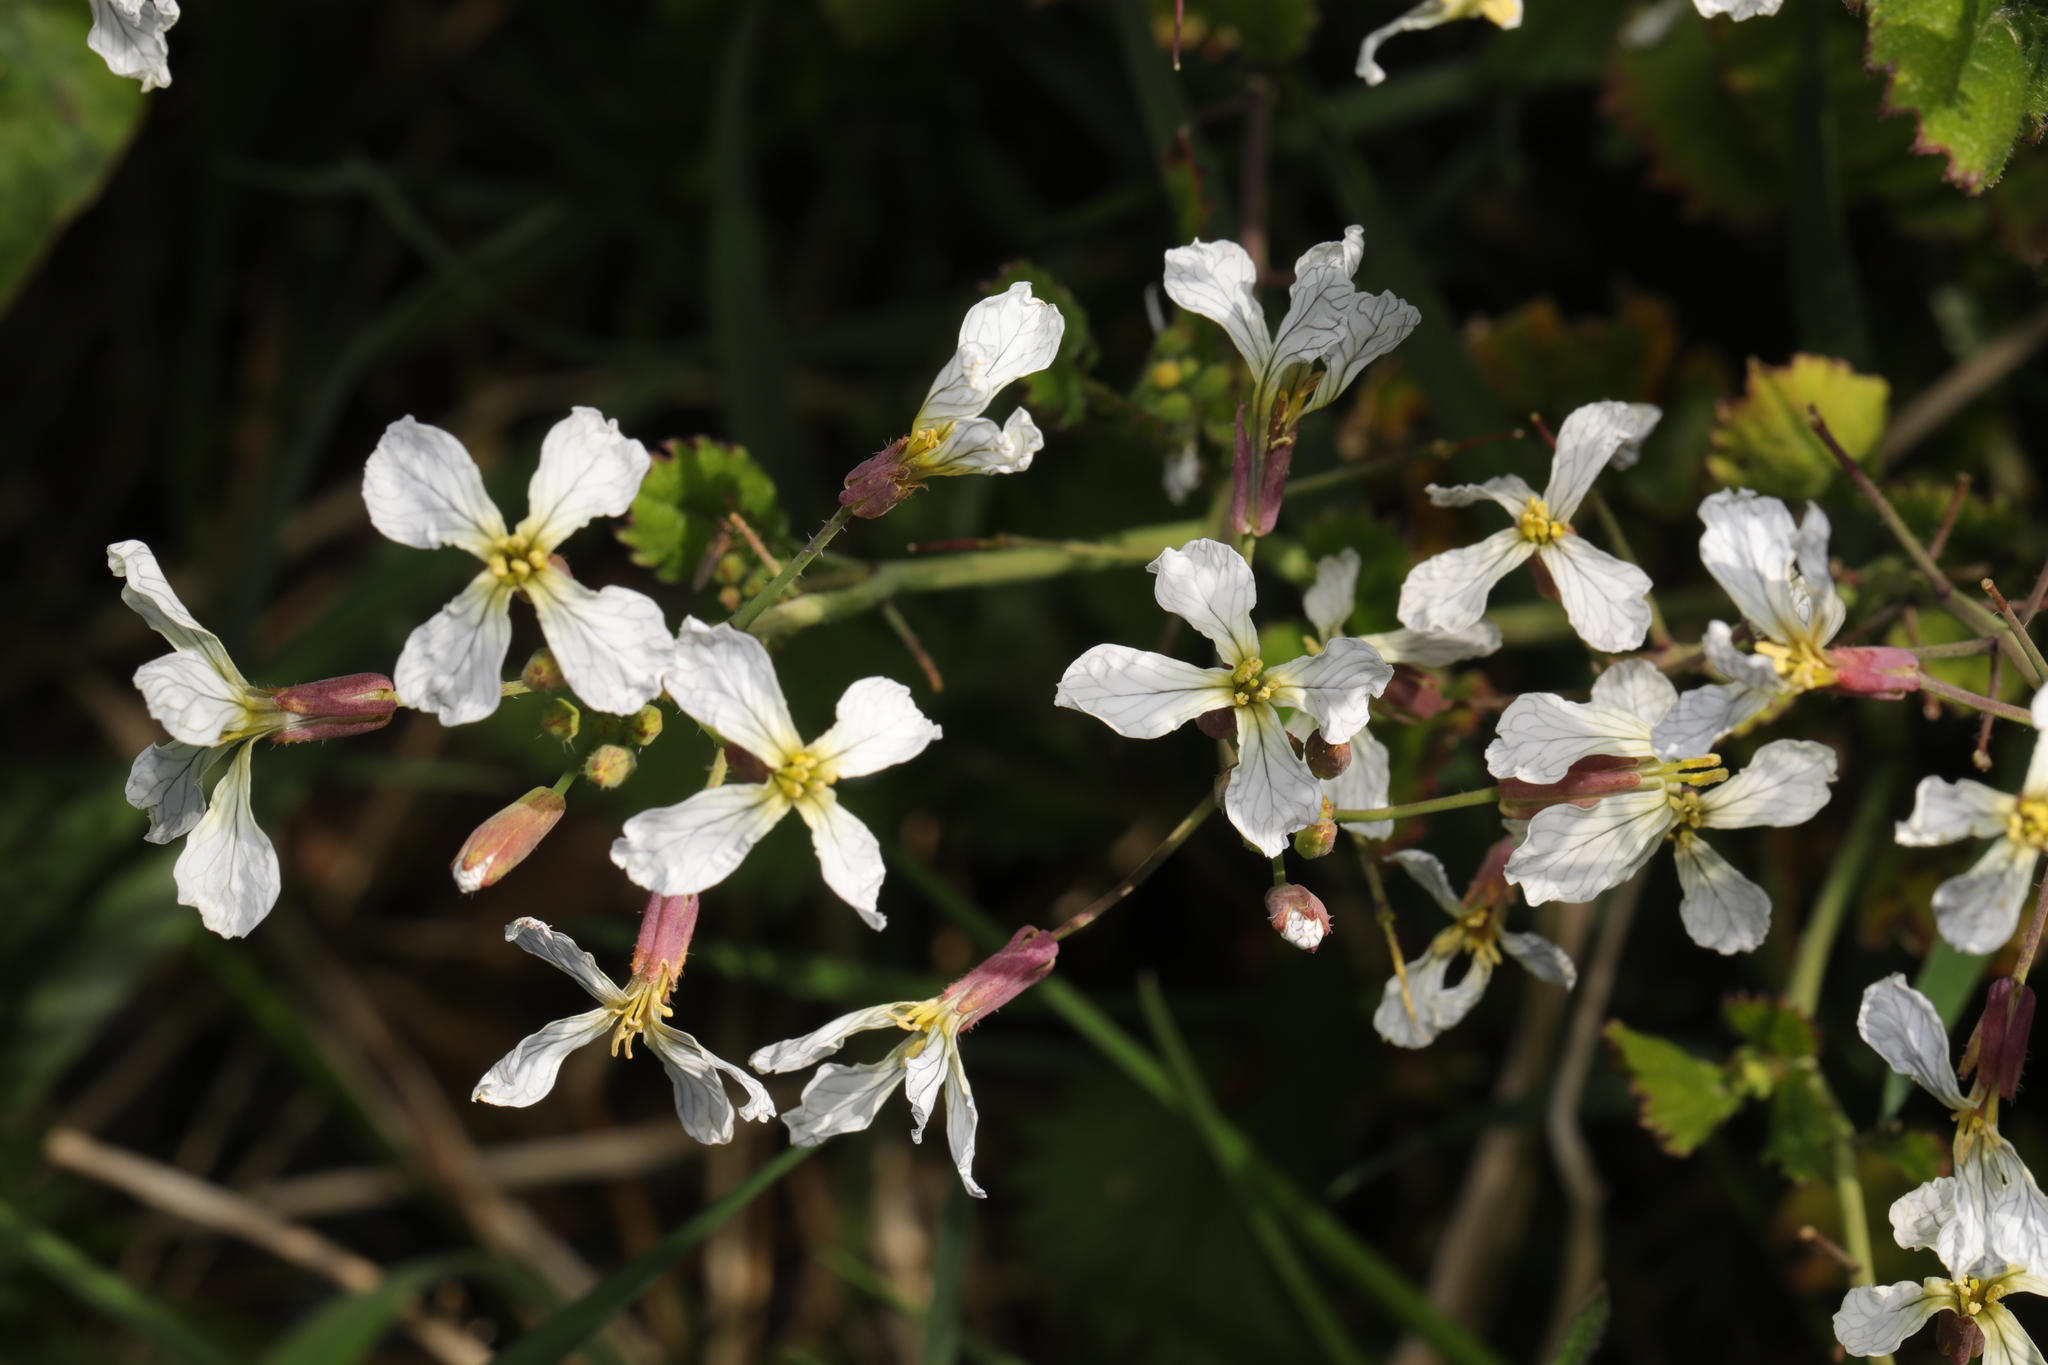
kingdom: Plantae
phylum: Tracheophyta
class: Magnoliopsida
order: Brassicales
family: Brassicaceae
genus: Raphanus
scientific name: Raphanus raphanistrum
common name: Wild radish
